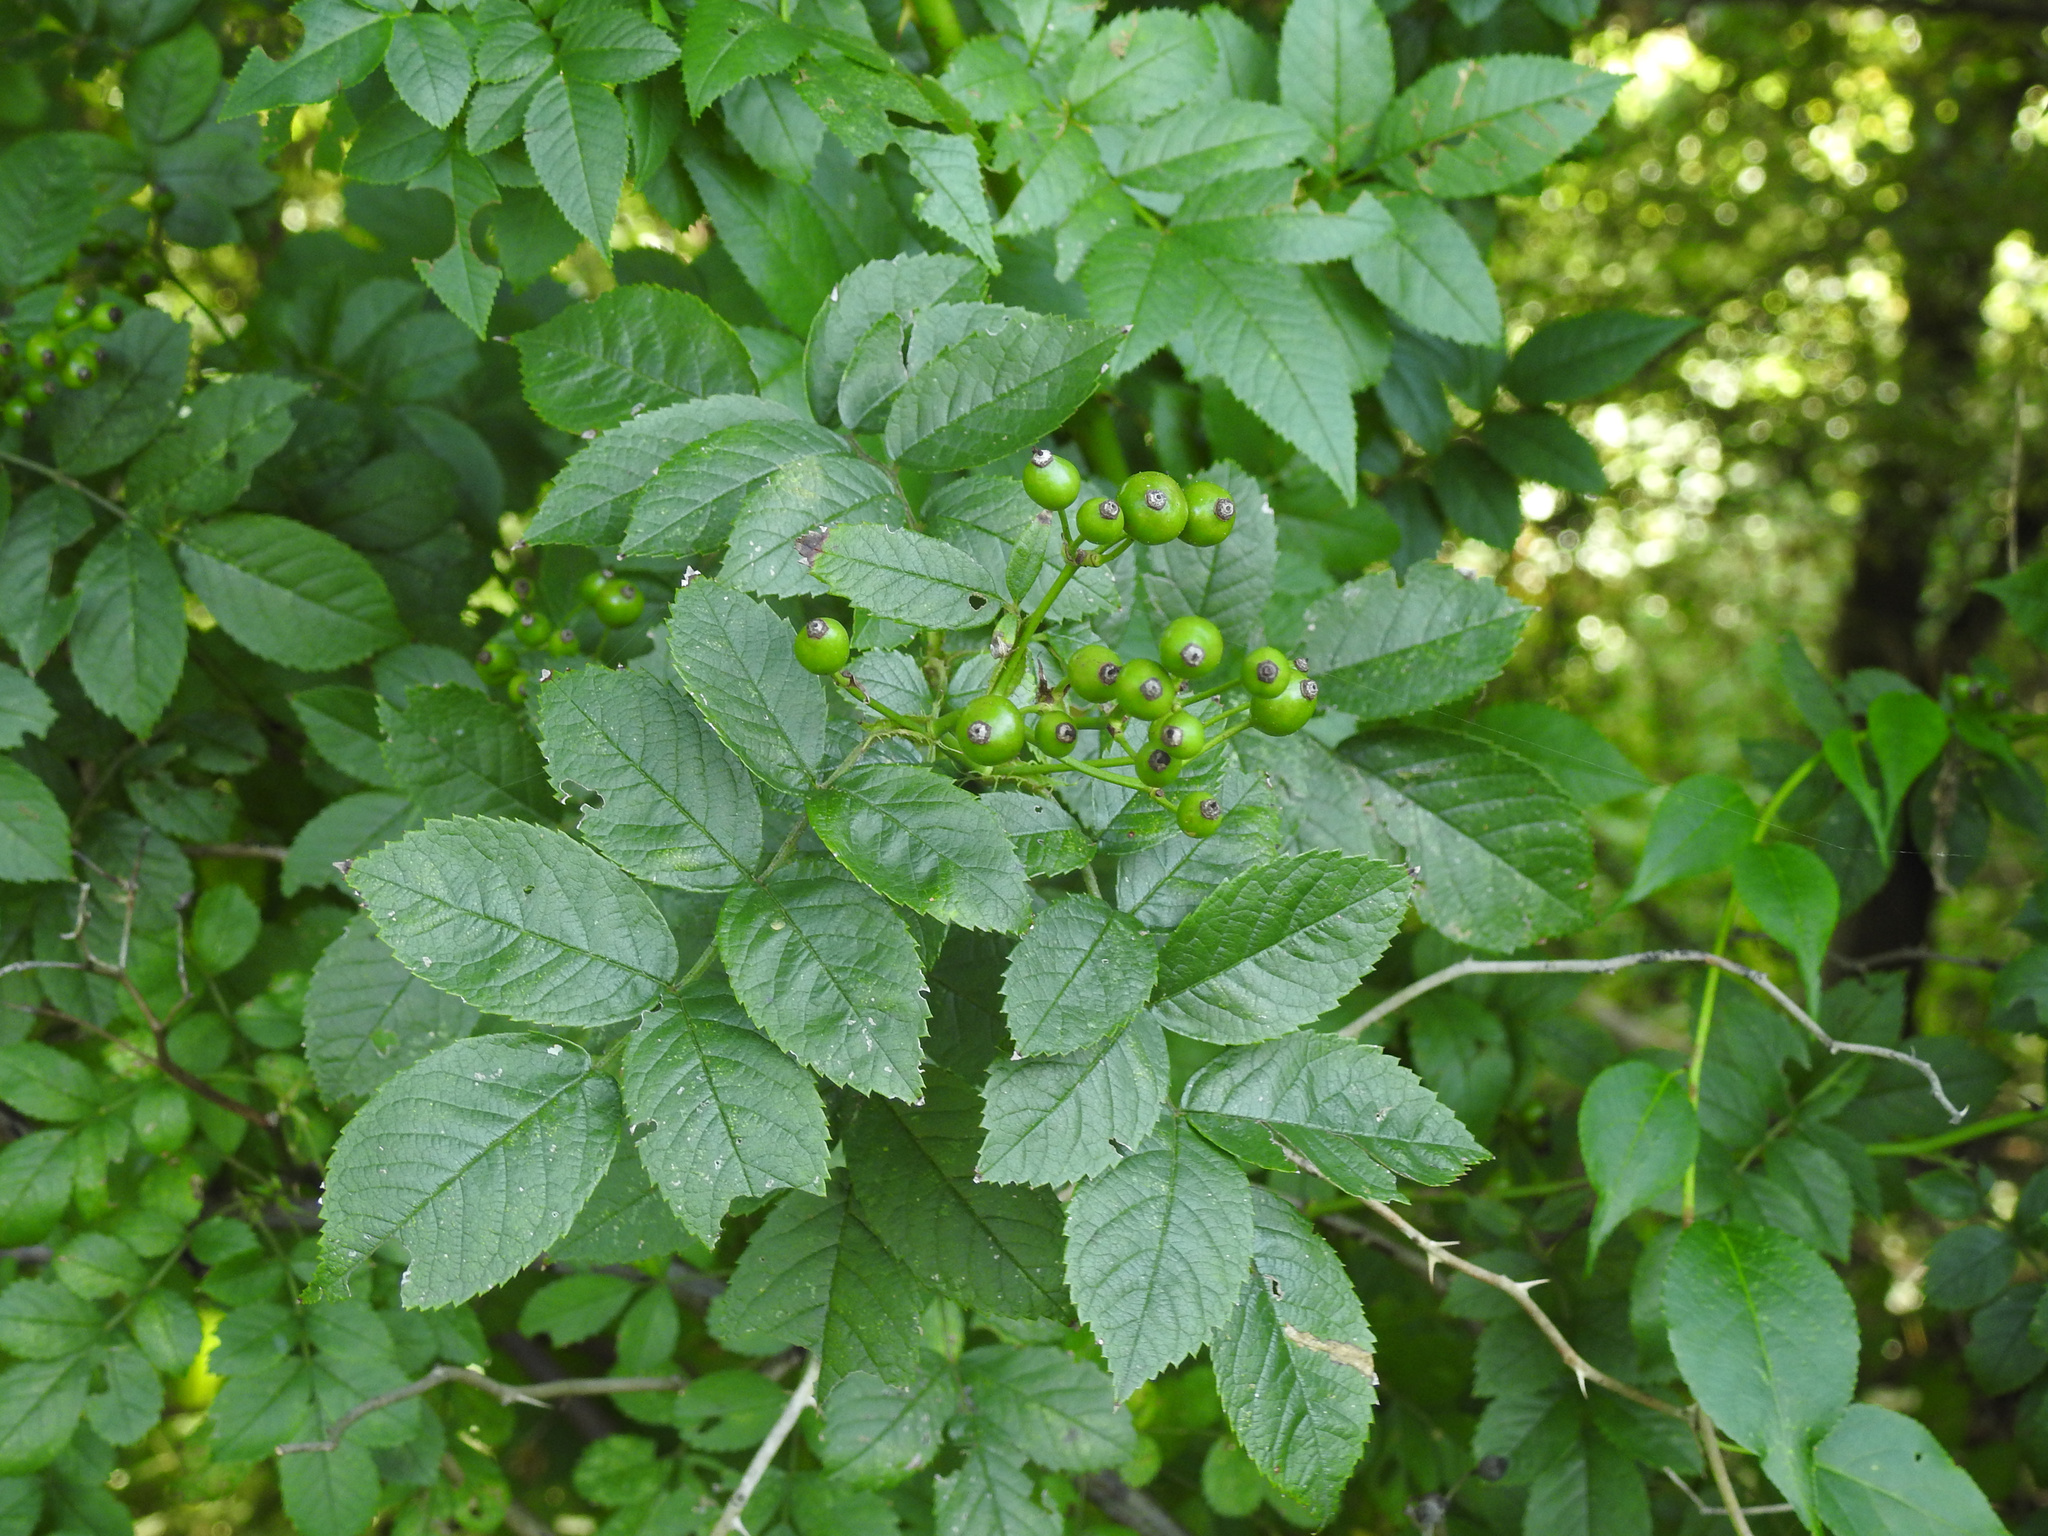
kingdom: Plantae
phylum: Tracheophyta
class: Magnoliopsida
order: Rosales
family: Rosaceae
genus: Rosa
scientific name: Rosa multiflora
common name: Multiflora rose
